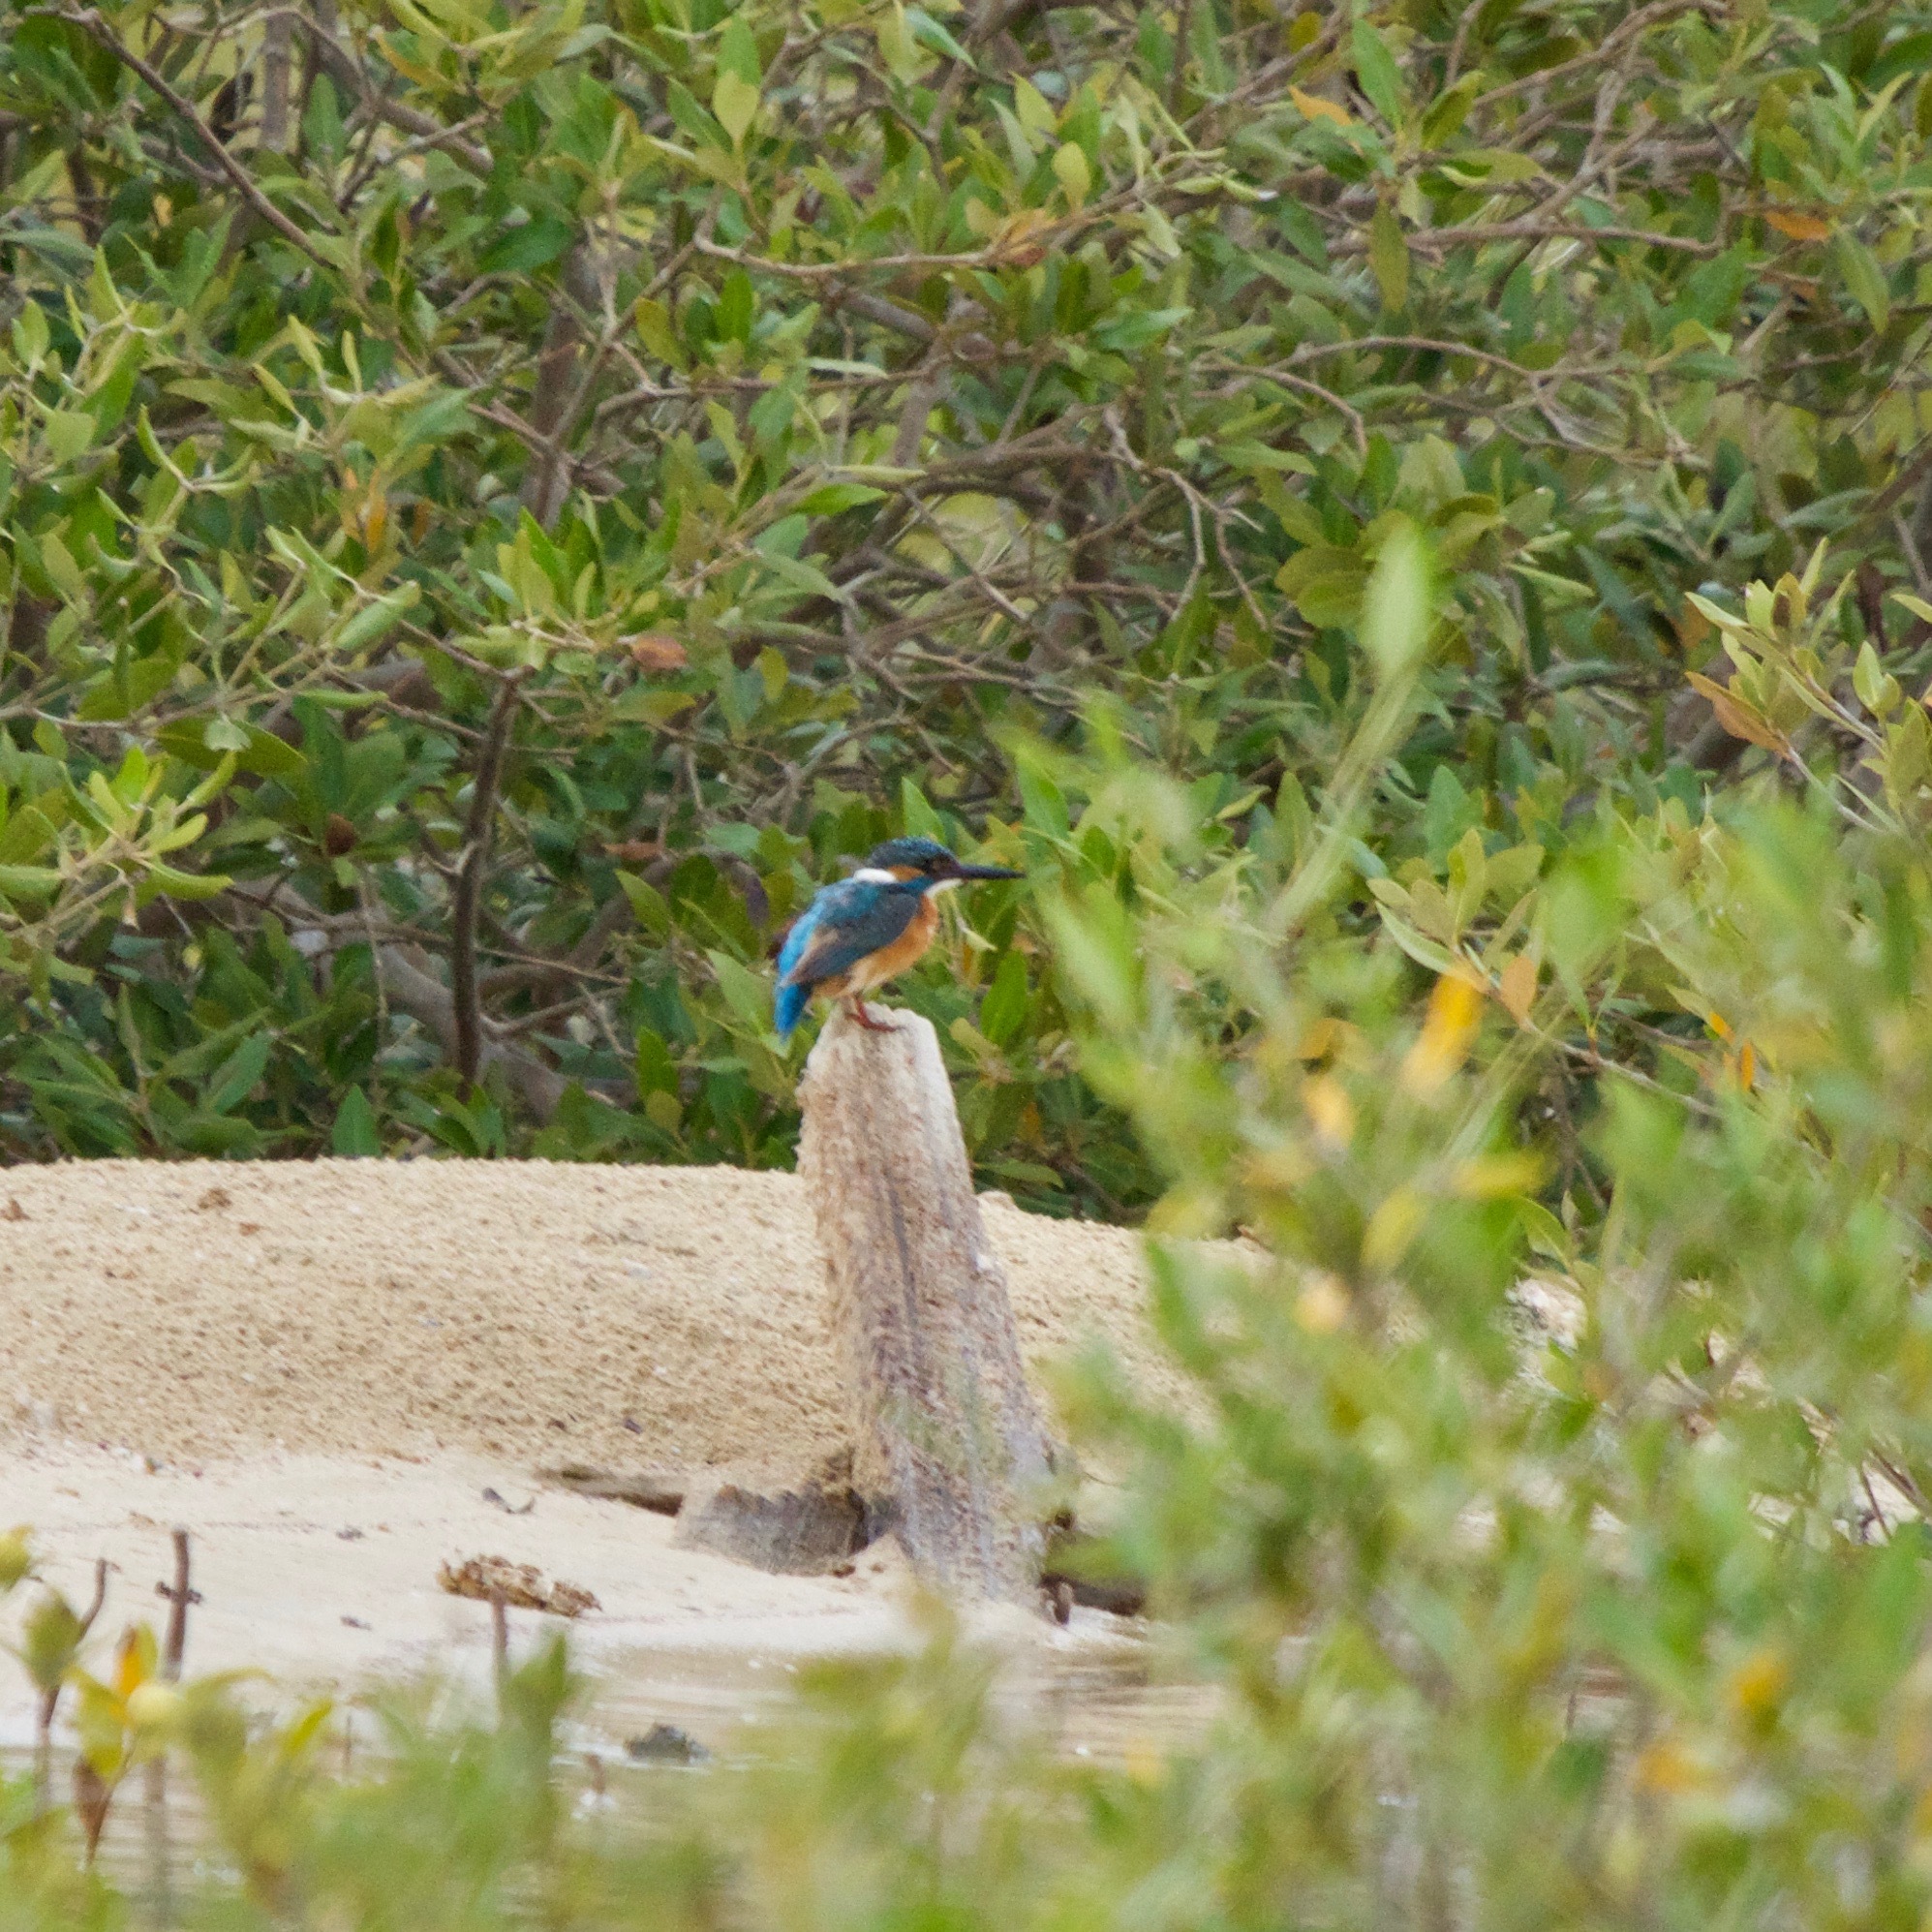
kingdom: Animalia
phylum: Chordata
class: Aves
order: Coraciiformes
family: Alcedinidae
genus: Alcedo
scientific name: Alcedo atthis
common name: Common kingfisher
